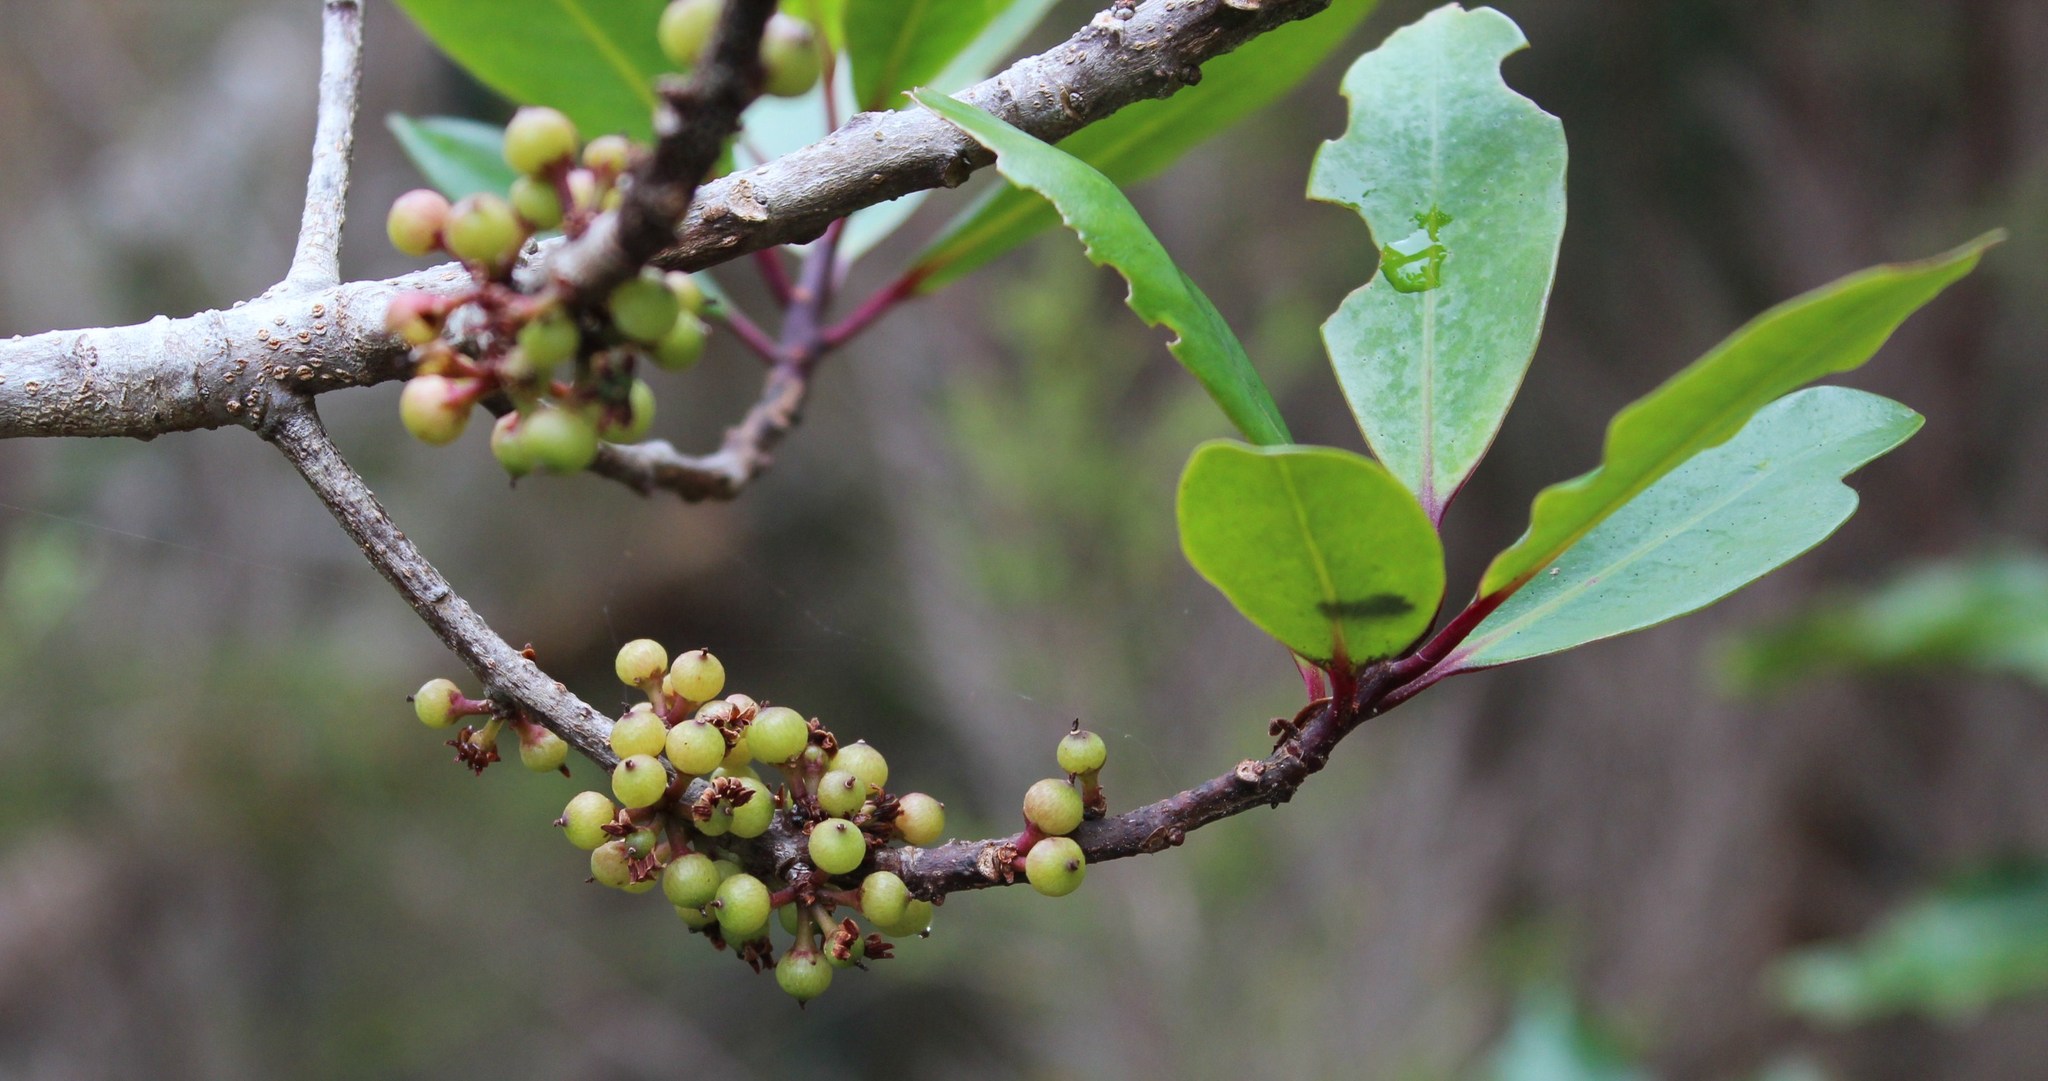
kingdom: Plantae
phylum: Tracheophyta
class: Magnoliopsida
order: Ericales
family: Primulaceae
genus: Myrsine
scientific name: Myrsine melanophloeos
